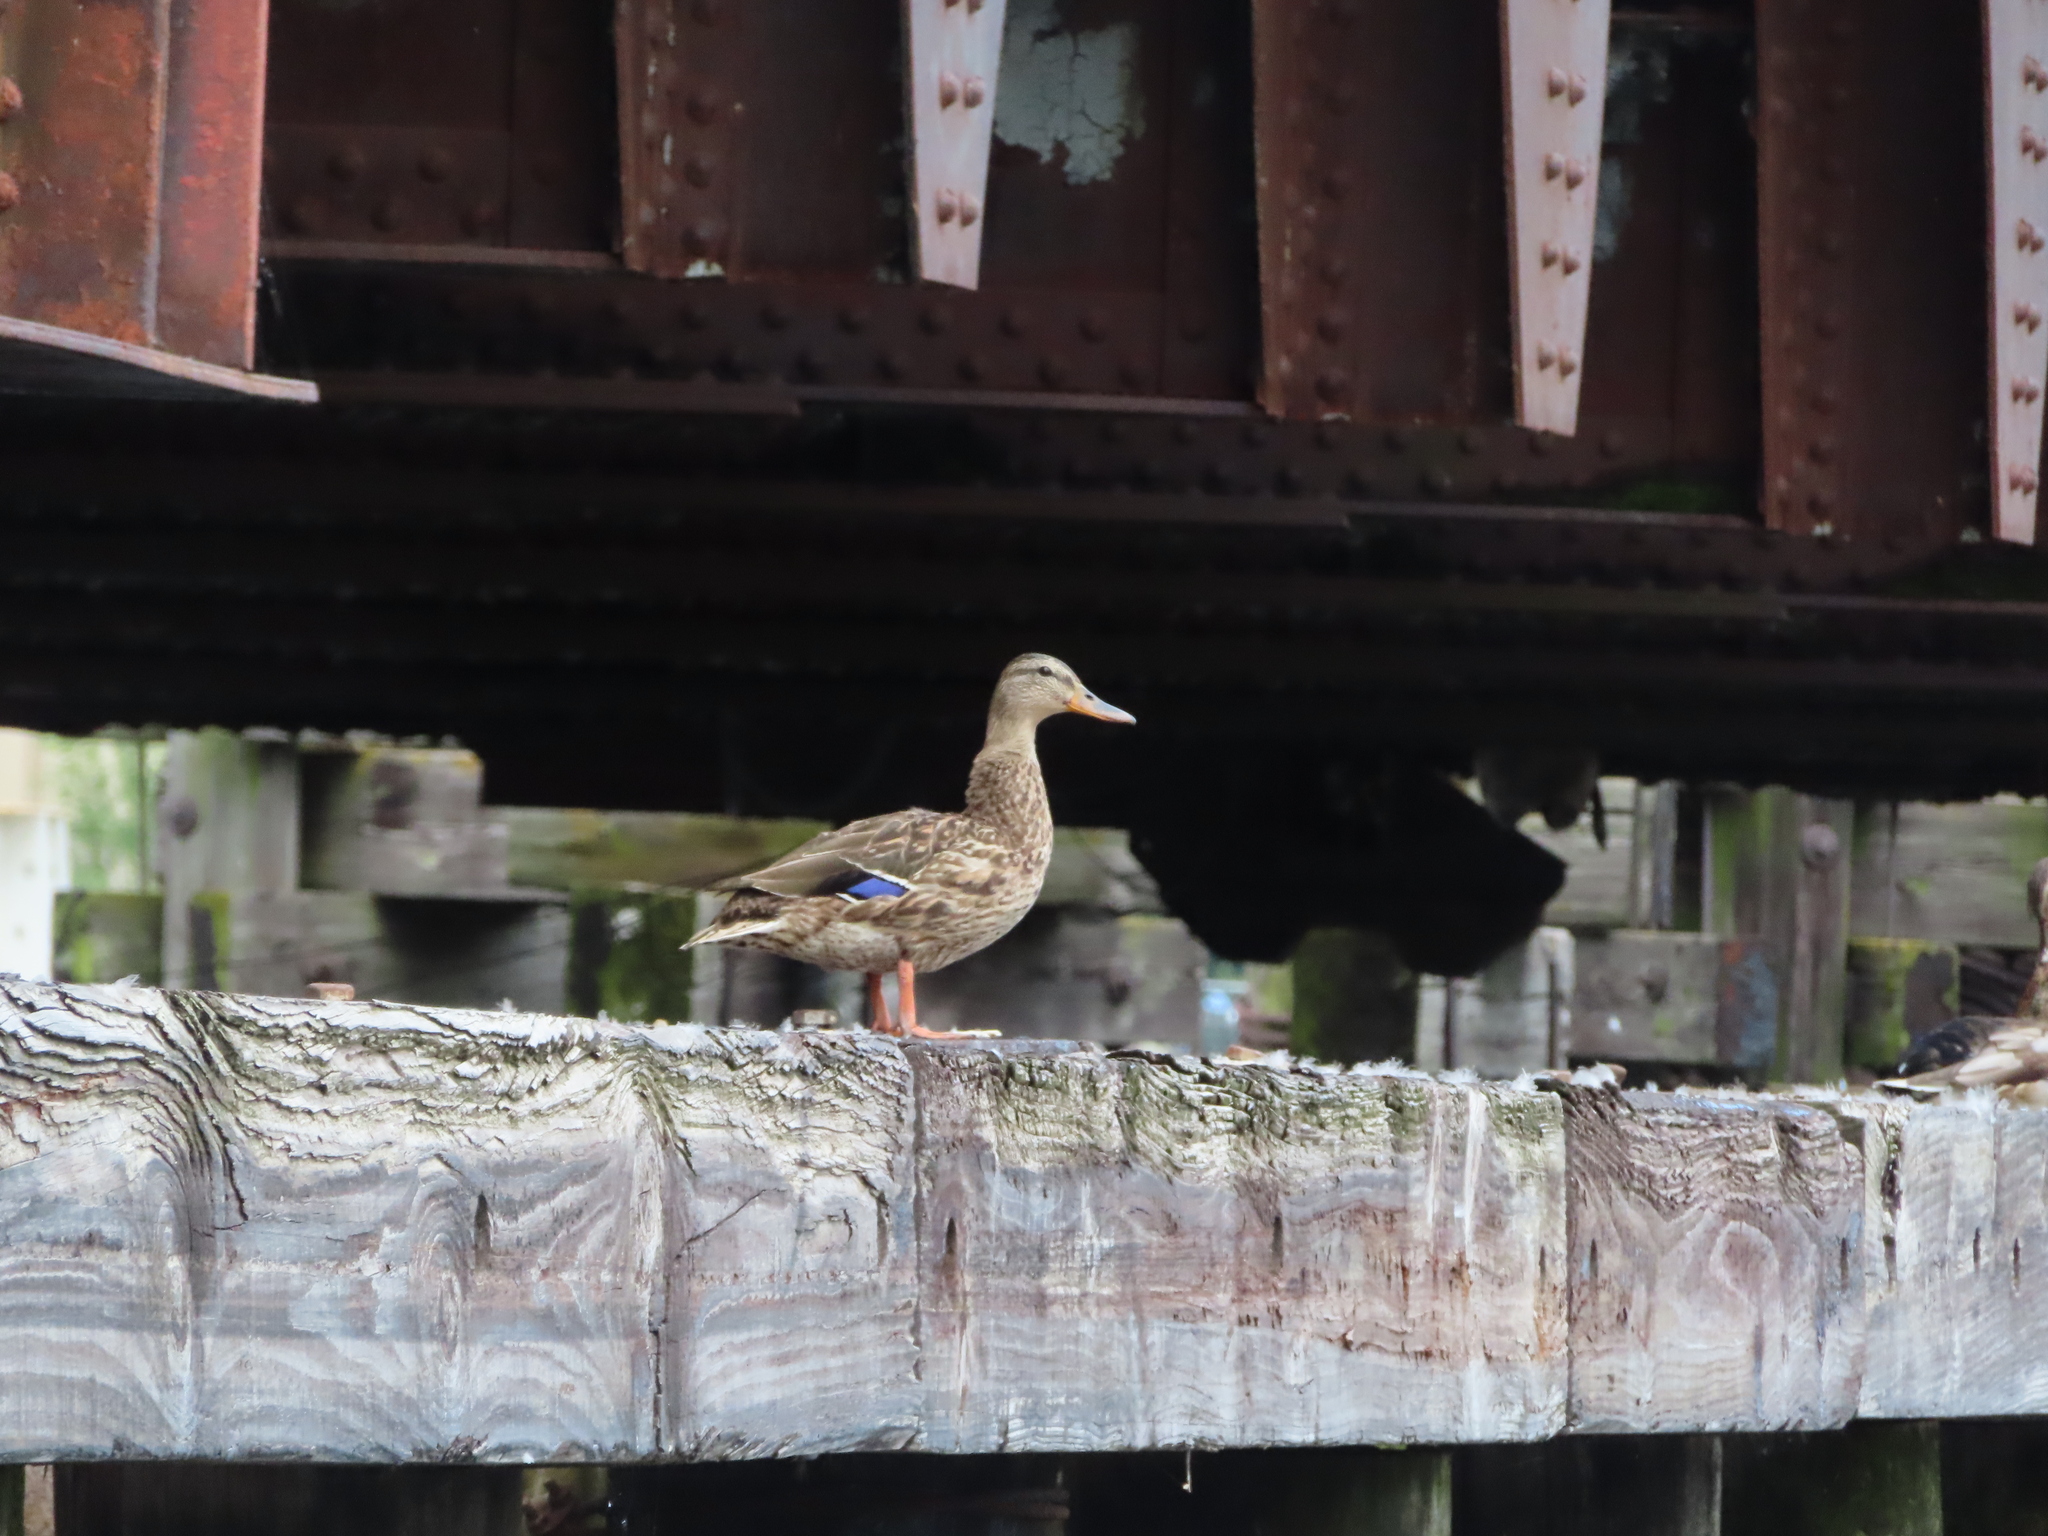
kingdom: Animalia
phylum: Chordata
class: Aves
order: Anseriformes
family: Anatidae
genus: Anas
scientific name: Anas platyrhynchos
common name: Mallard
